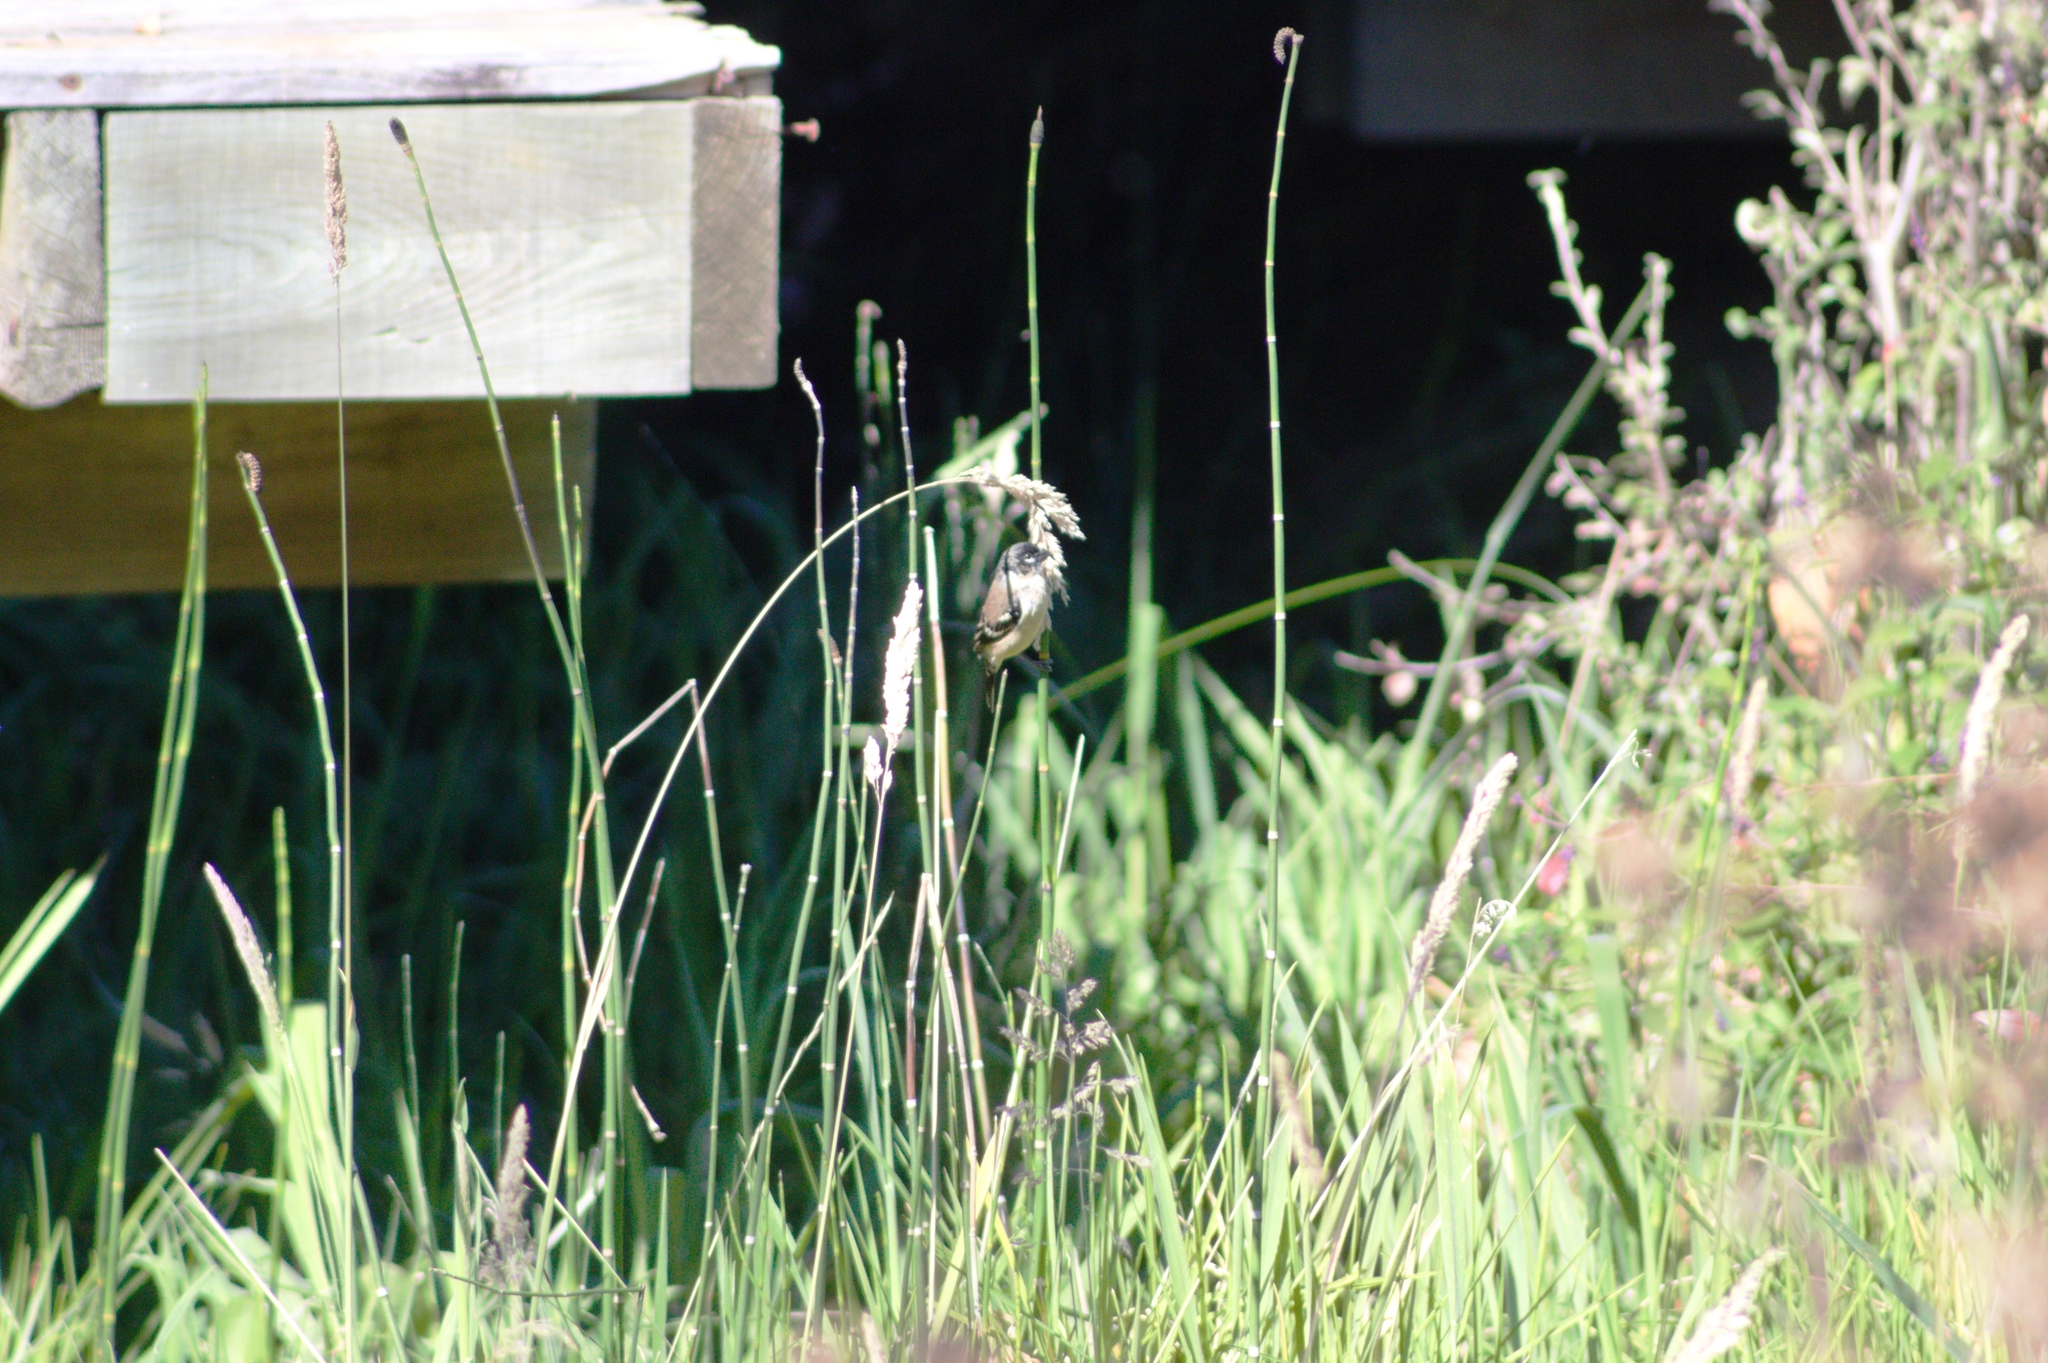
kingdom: Animalia
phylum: Chordata
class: Aves
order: Passeriformes
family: Thraupidae
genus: Sporophila
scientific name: Sporophila morelleti
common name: Morelet's seedeater
